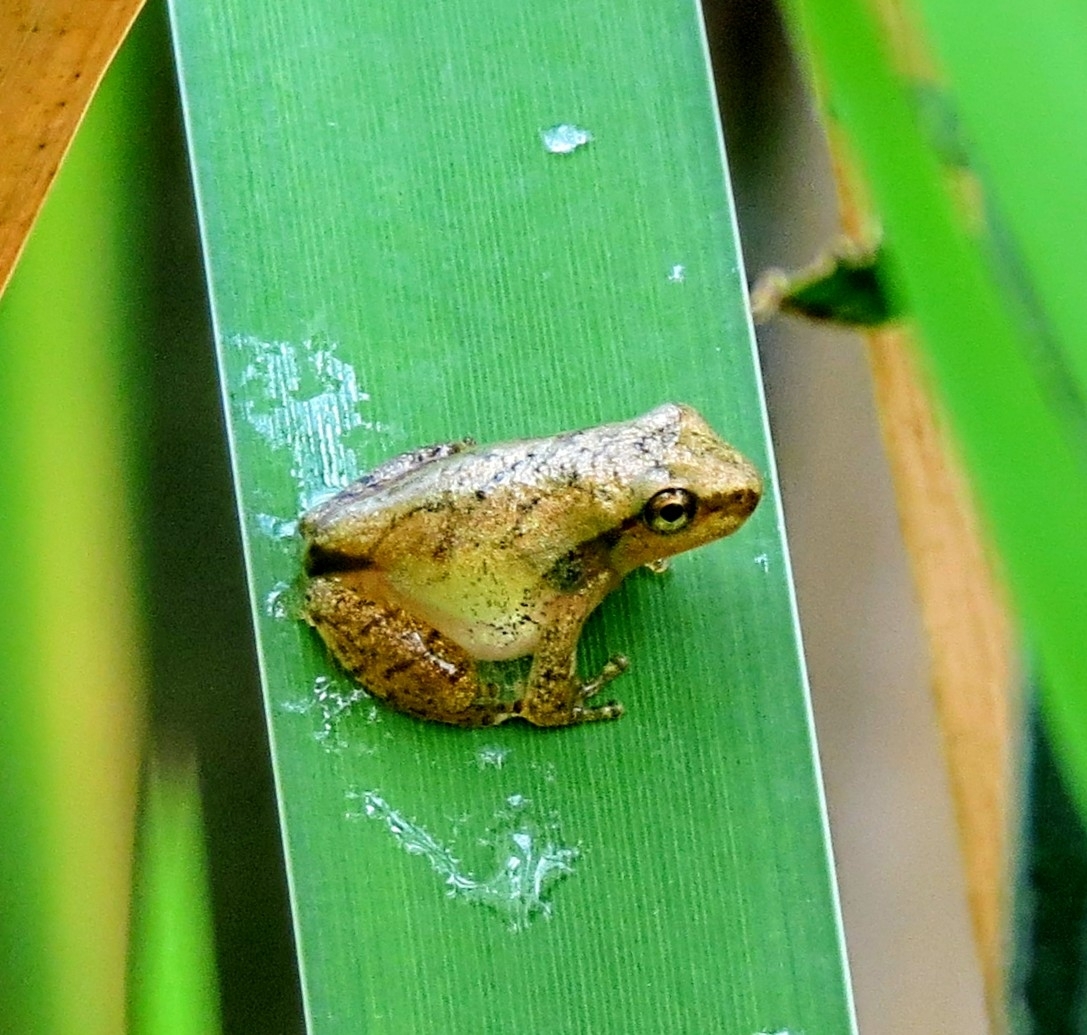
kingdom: Animalia
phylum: Chordata
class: Amphibia
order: Anura
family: Hylidae
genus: Pseudacris
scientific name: Pseudacris crucifer
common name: Spring peeper
